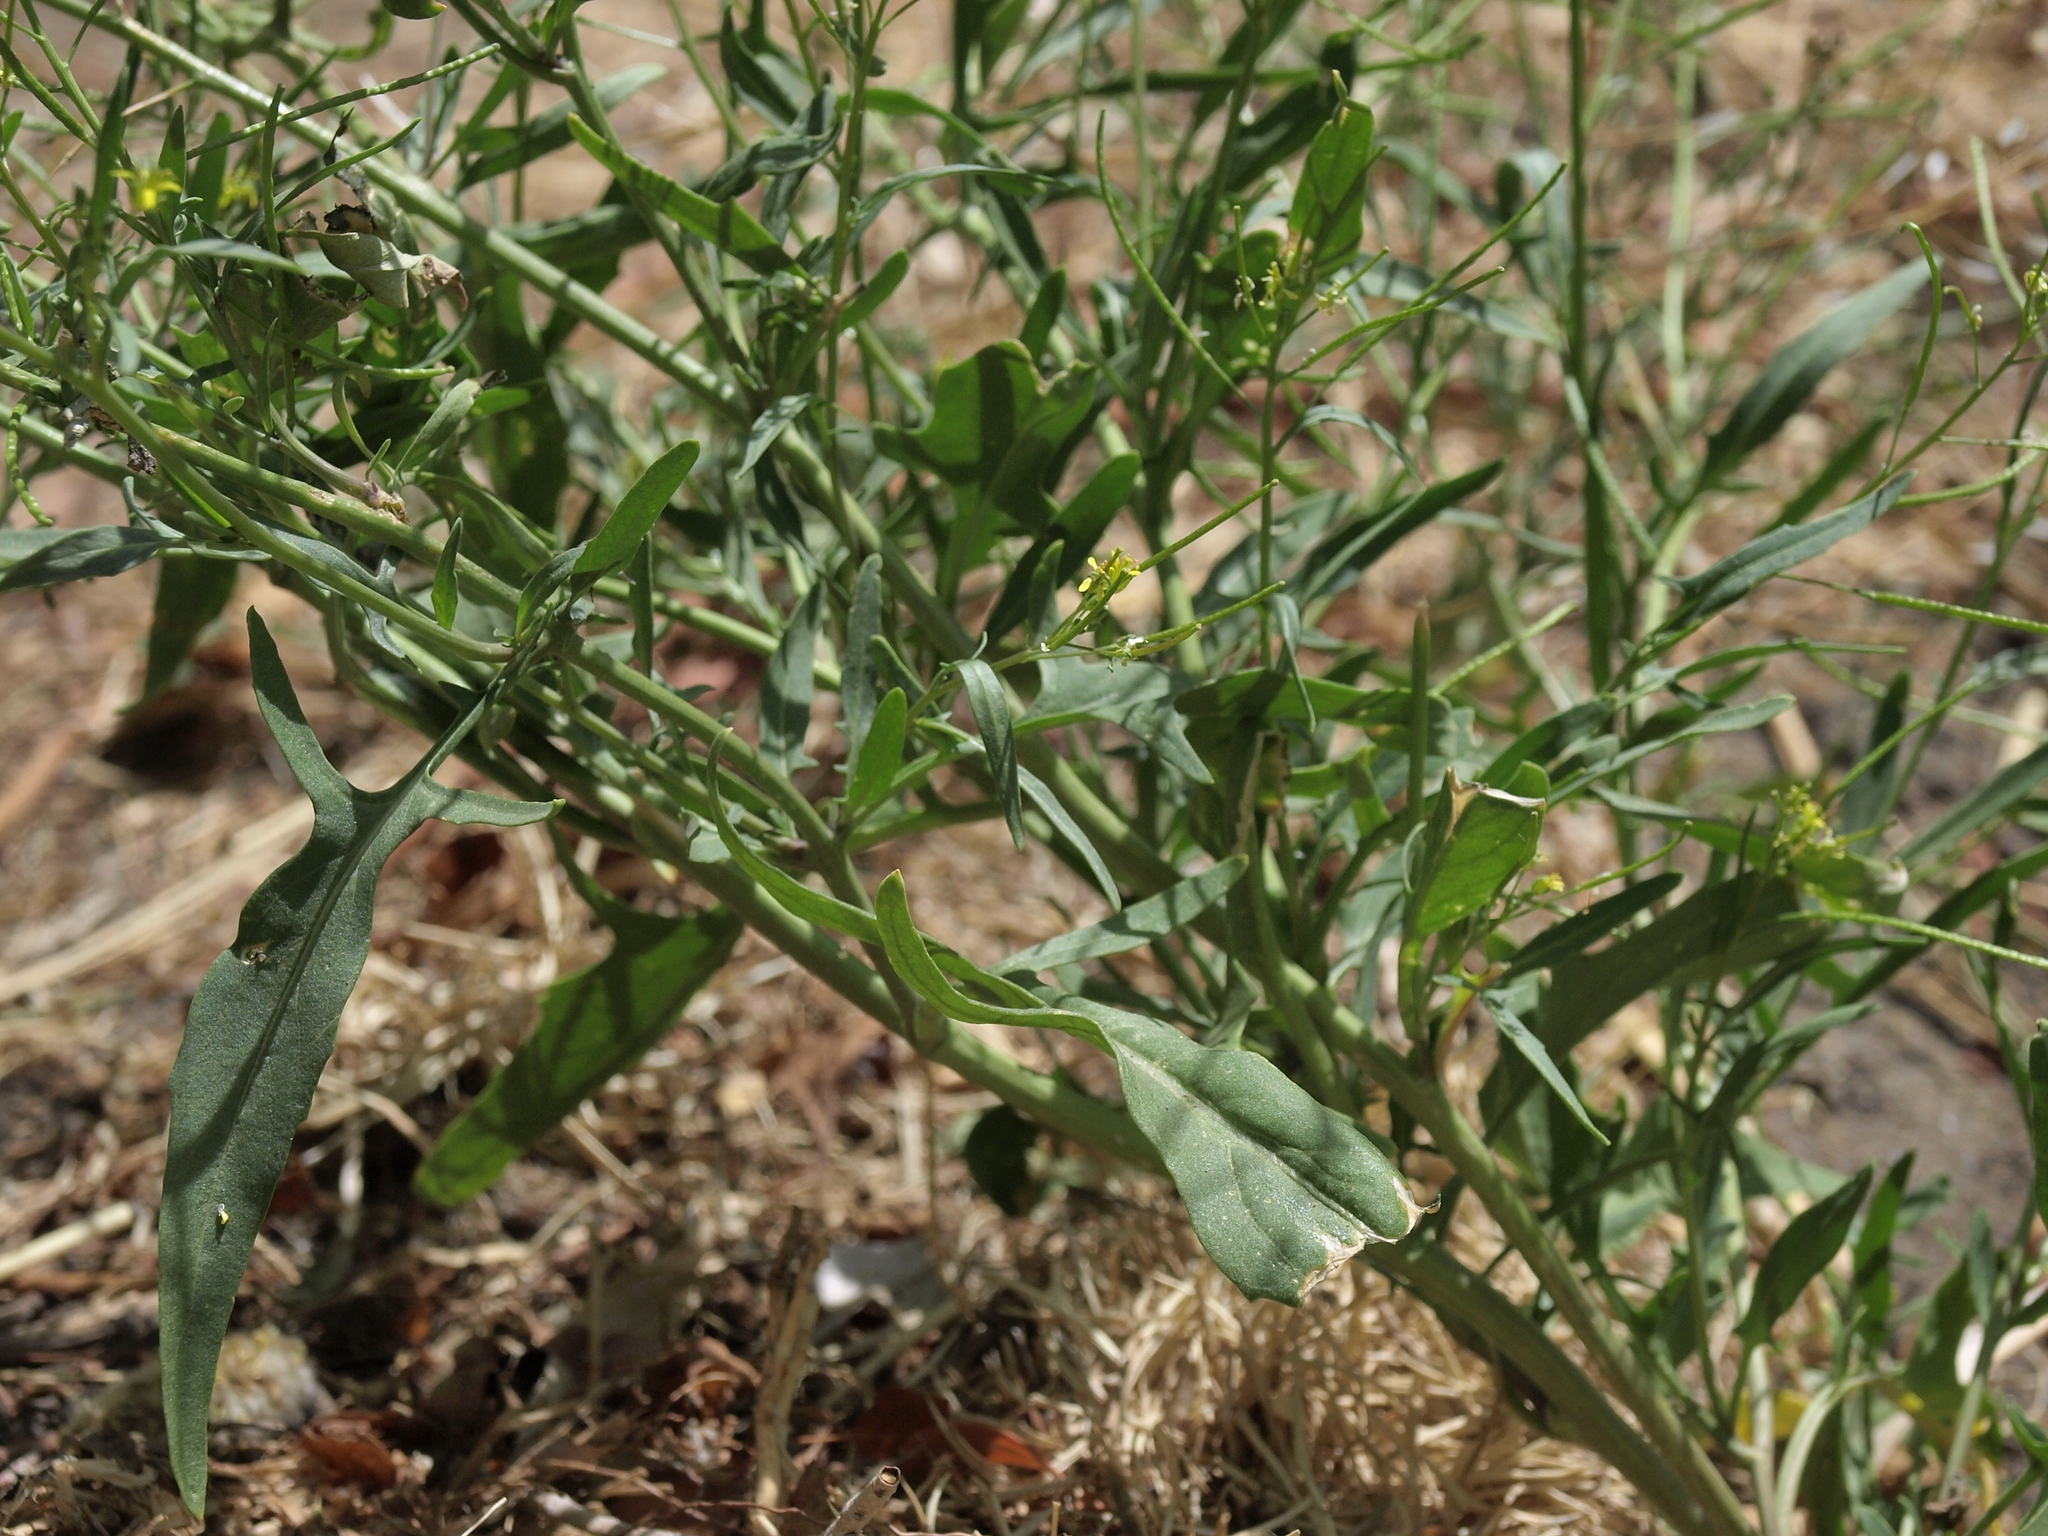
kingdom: Plantae
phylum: Tracheophyta
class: Magnoliopsida
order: Brassicales
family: Brassicaceae
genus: Sisymbrium
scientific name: Sisymbrium irio
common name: London rocket
